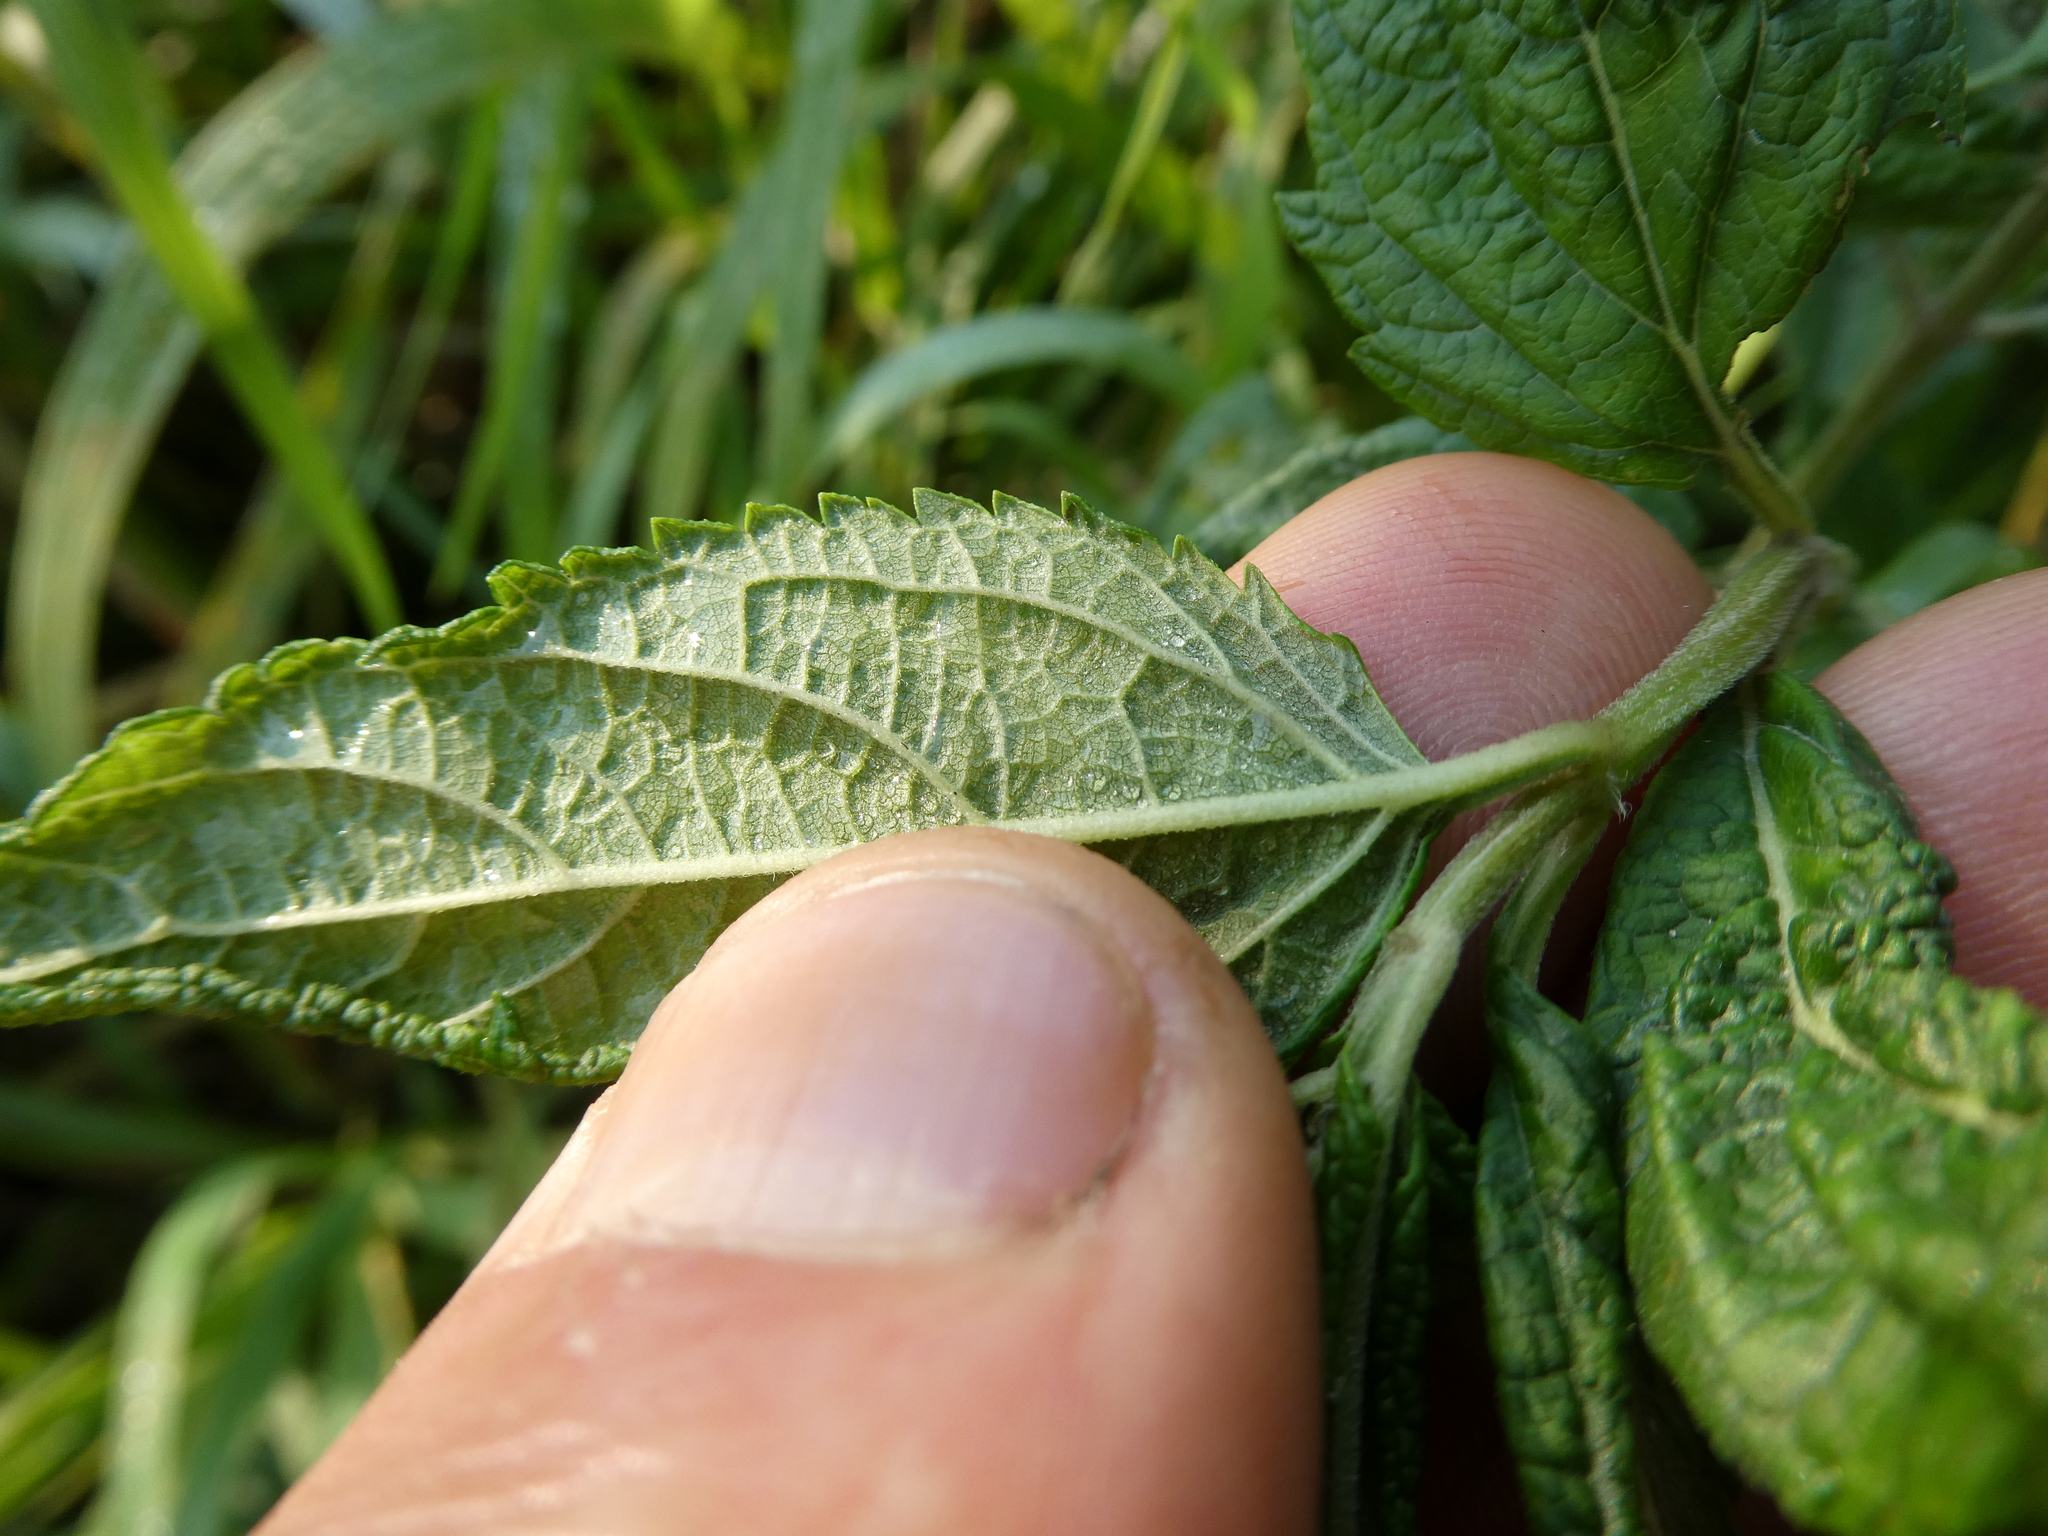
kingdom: Plantae
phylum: Tracheophyta
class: Magnoliopsida
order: Lamiales
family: Lamiaceae
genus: Teucrium
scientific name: Teucrium canadense
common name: American germander
